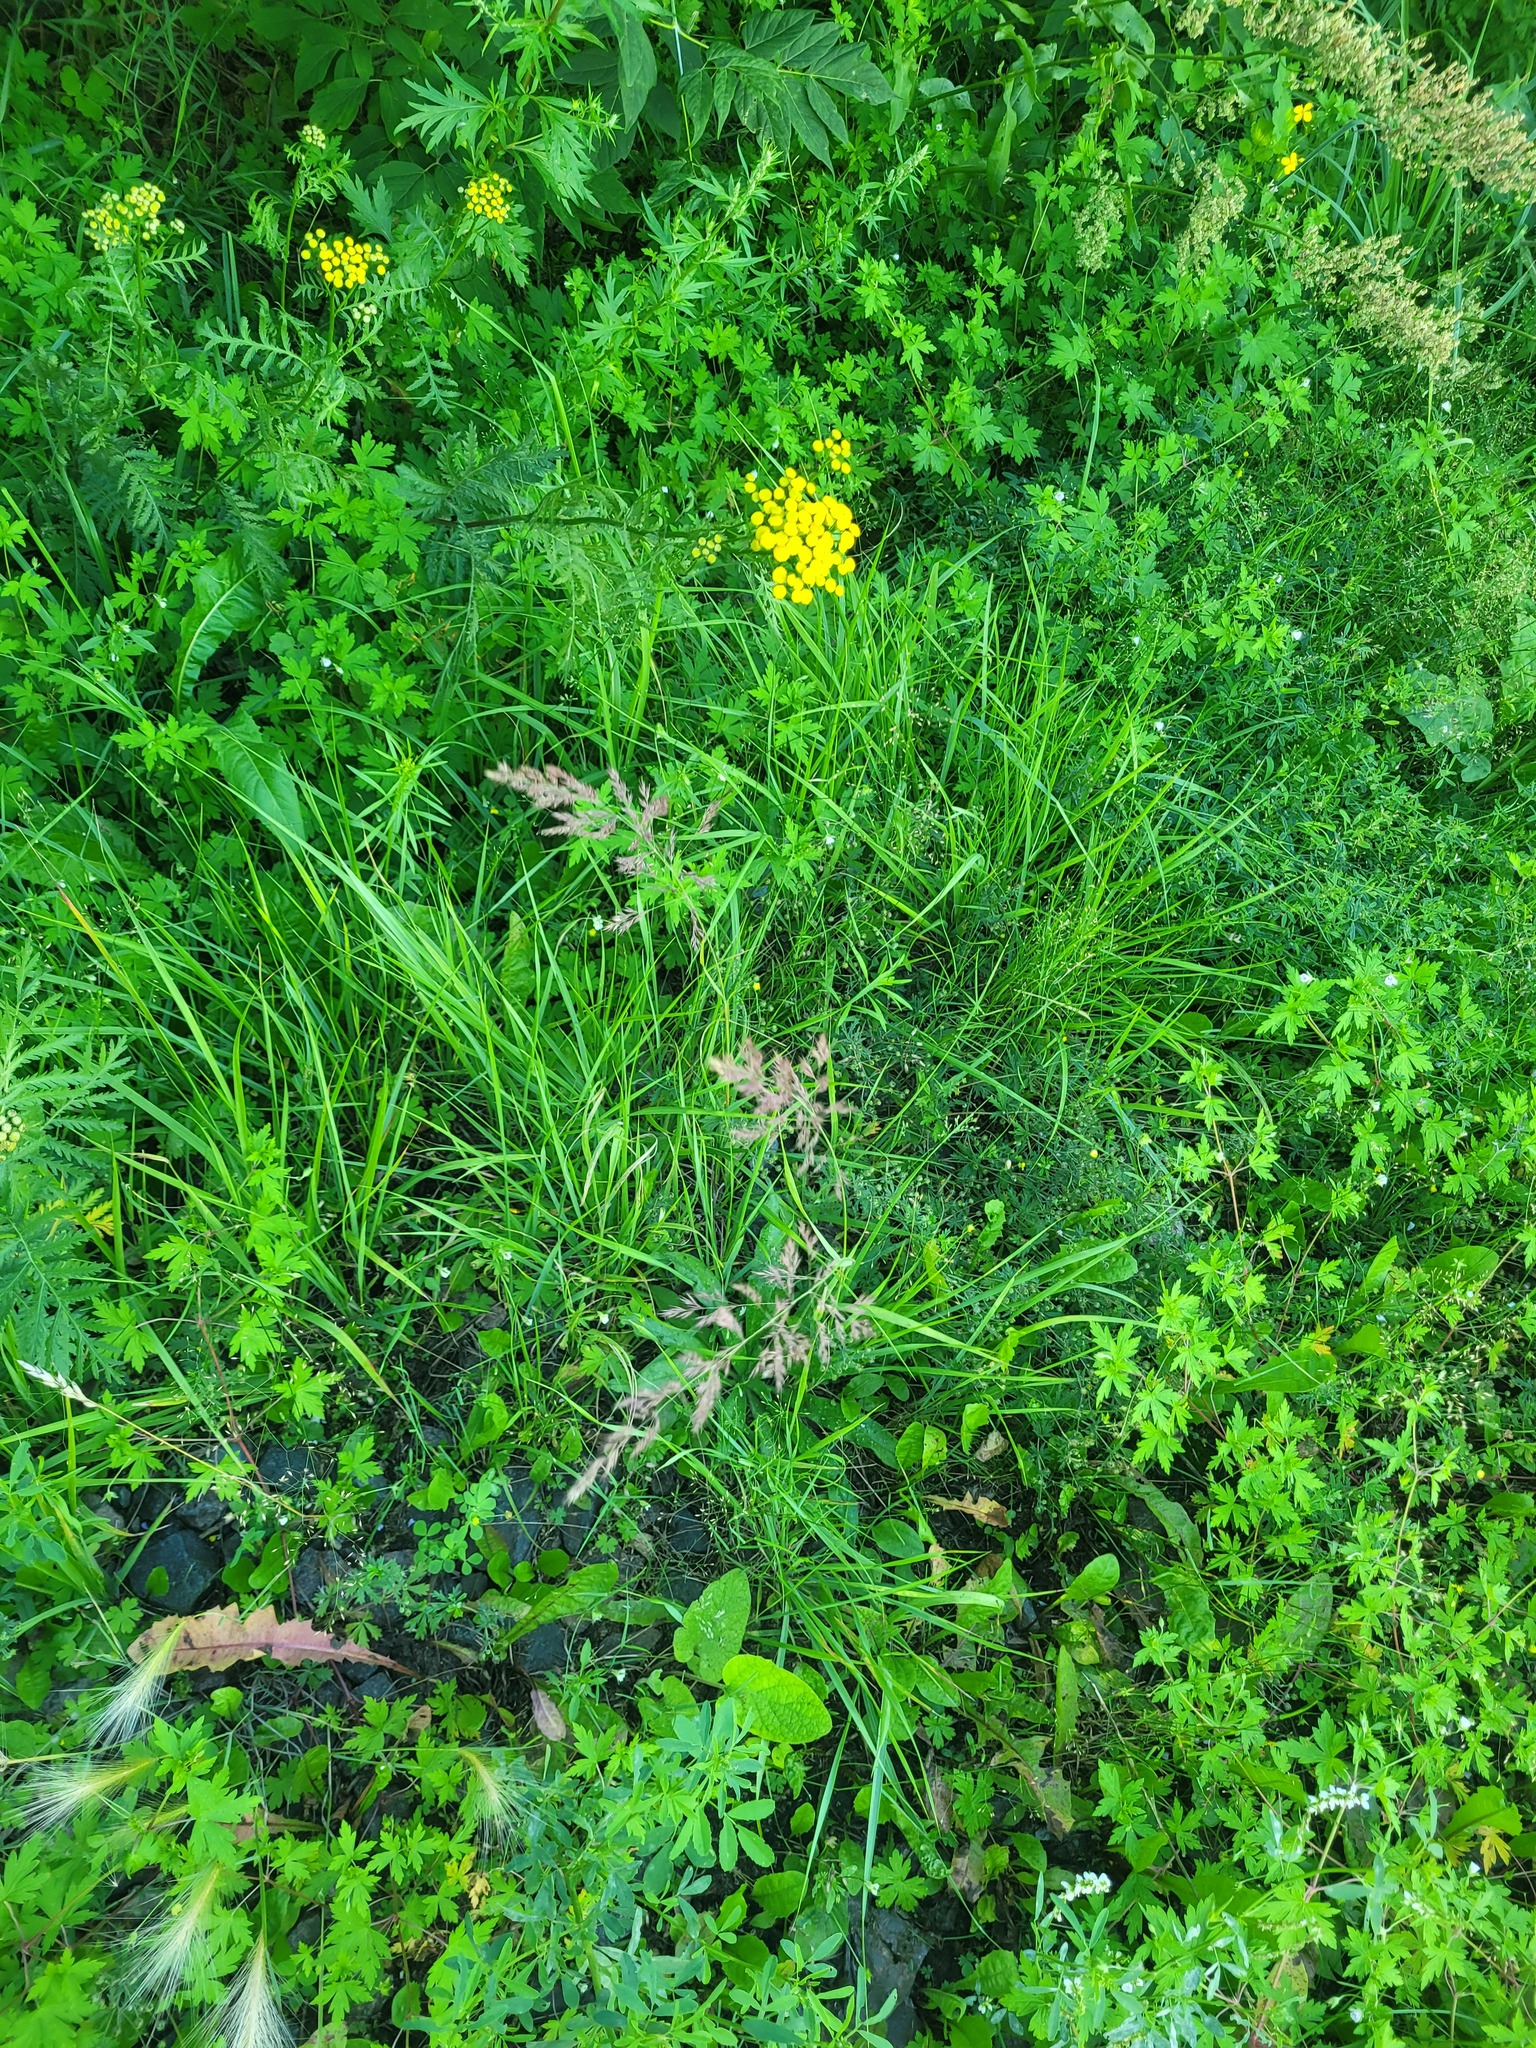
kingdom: Plantae
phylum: Tracheophyta
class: Liliopsida
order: Poales
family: Poaceae
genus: Calamagrostis
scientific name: Calamagrostis epigejos
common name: Wood small-reed
